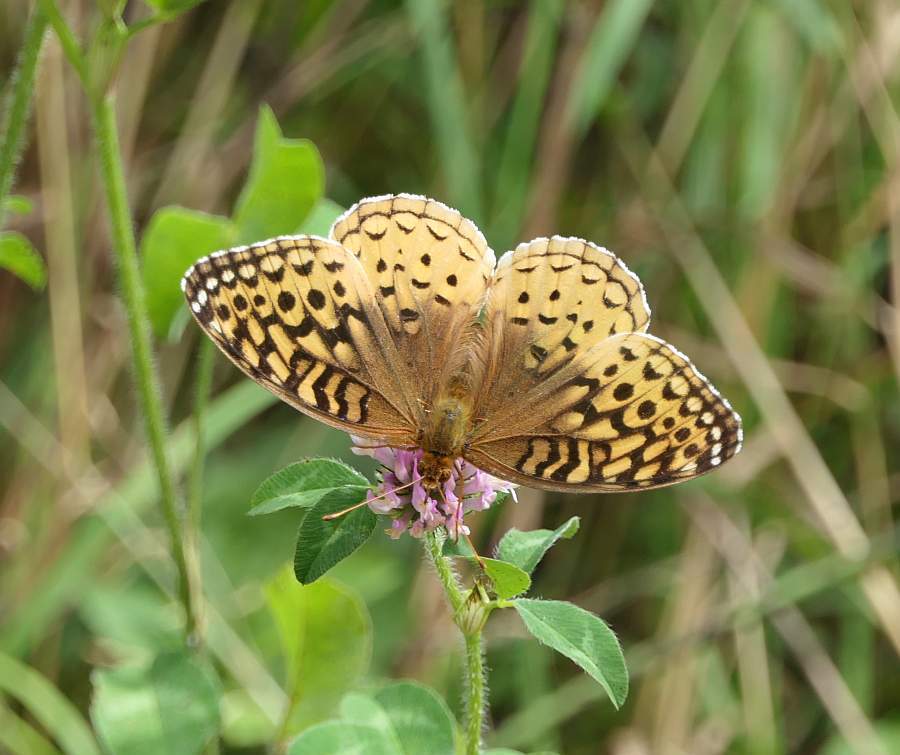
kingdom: Animalia
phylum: Arthropoda
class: Insecta
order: Lepidoptera
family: Nymphalidae
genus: Speyeria
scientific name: Speyeria cybele
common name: Great spangled fritillary
